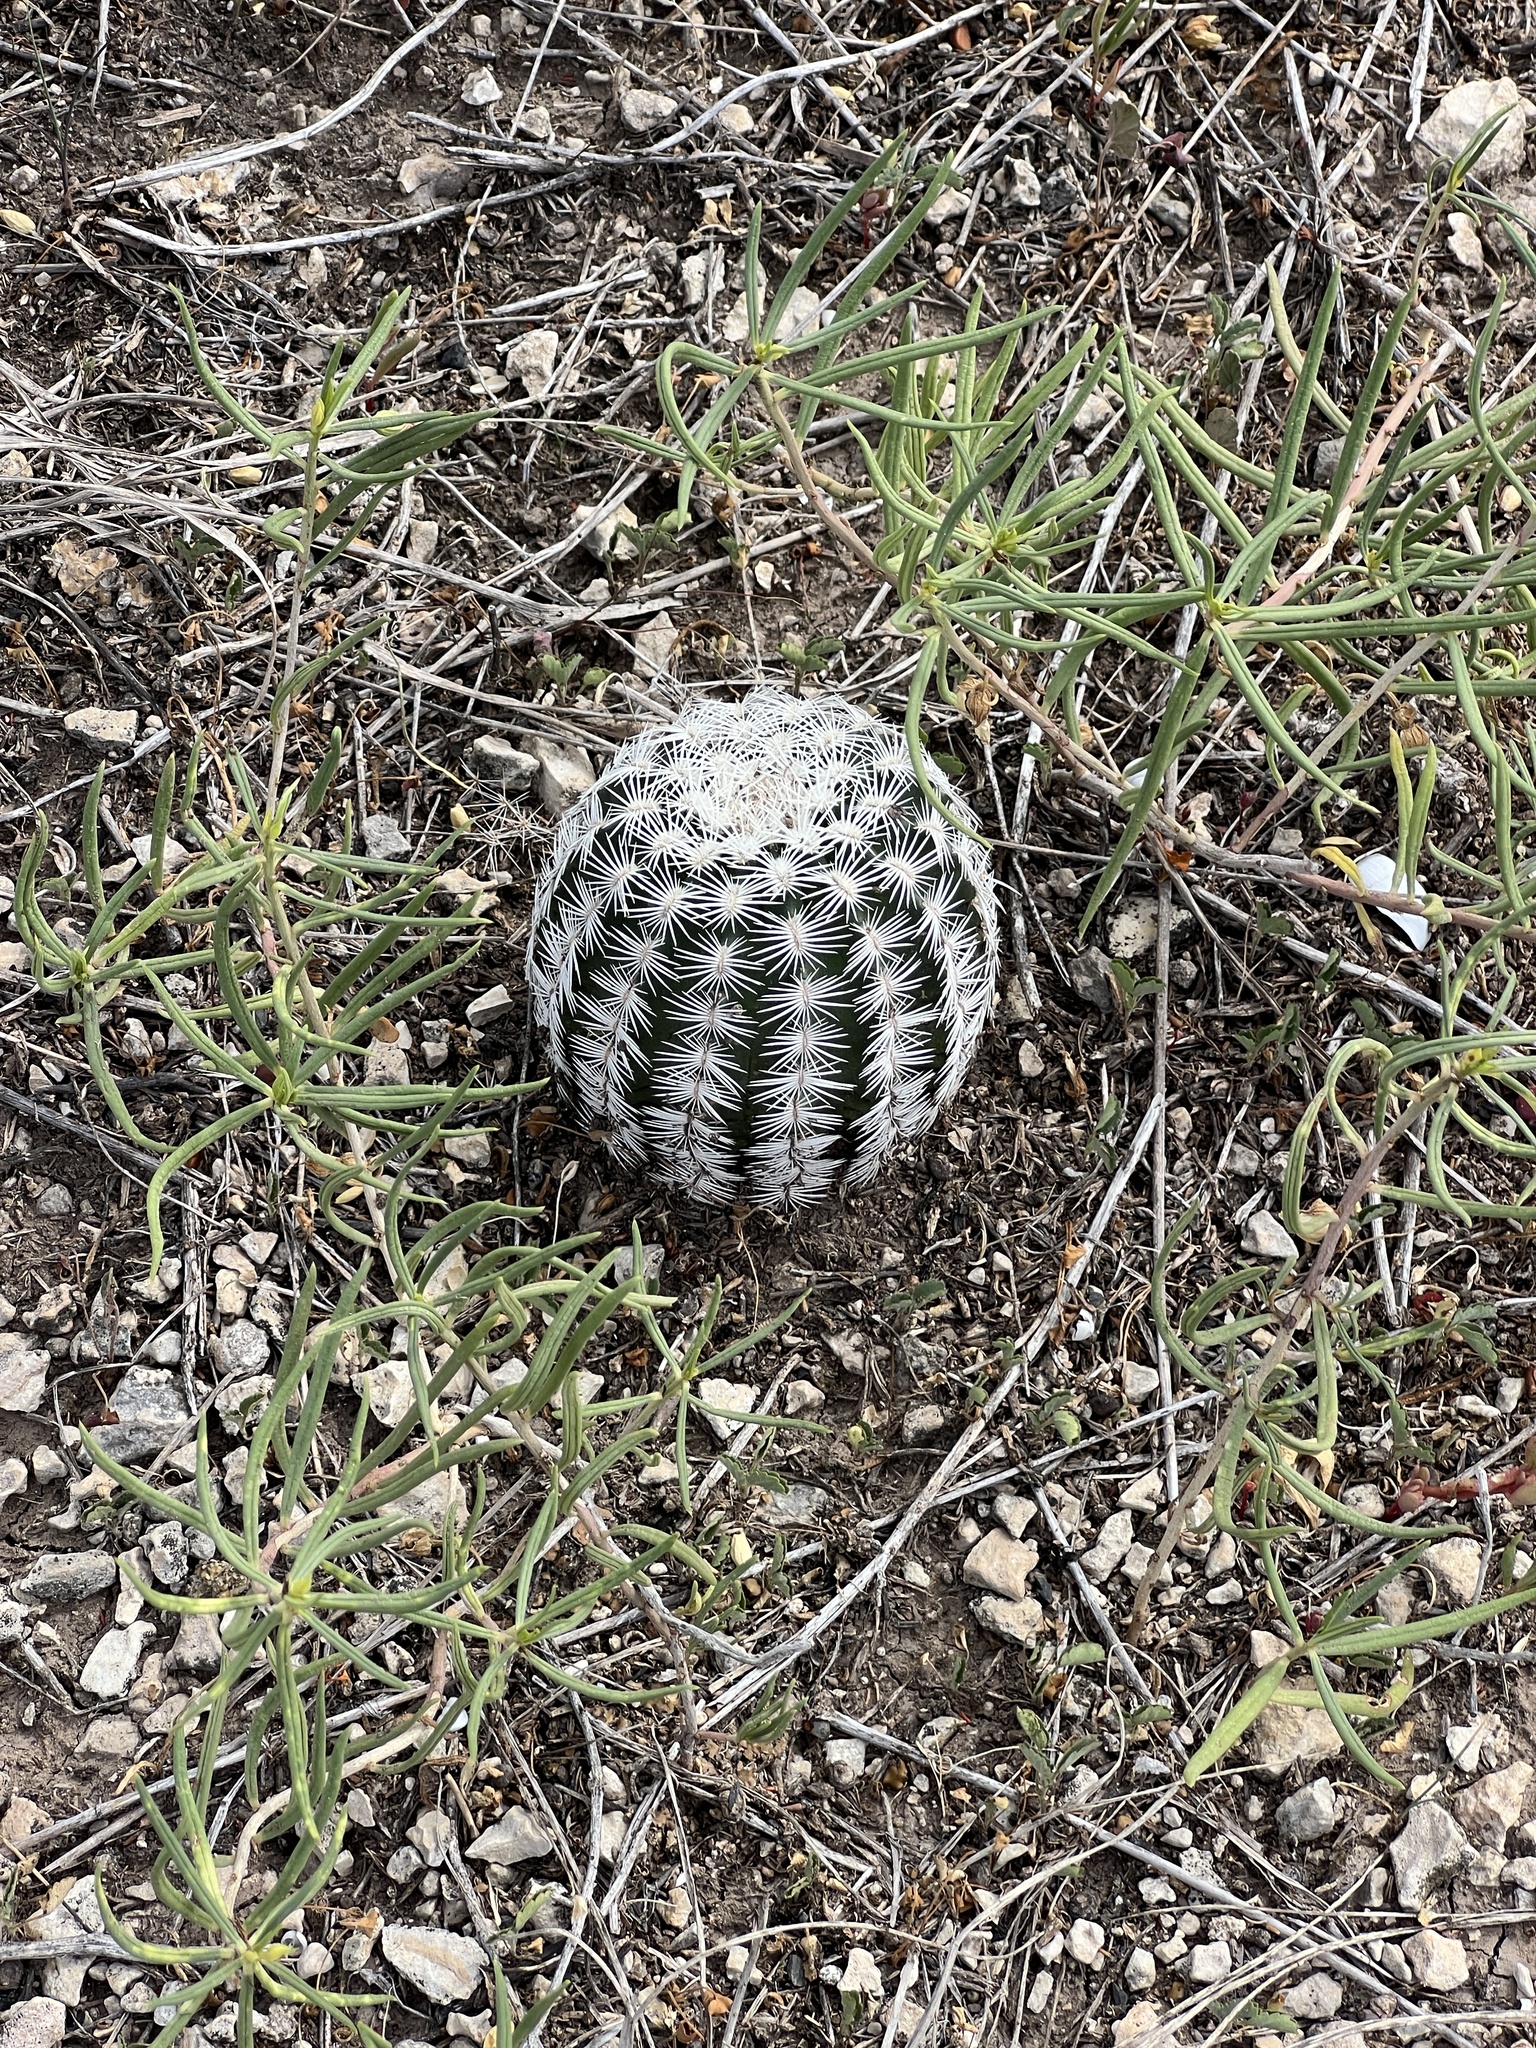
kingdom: Plantae
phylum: Tracheophyta
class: Magnoliopsida
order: Caryophyllales
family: Cactaceae
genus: Echinocereus
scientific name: Echinocereus reichenbachii
